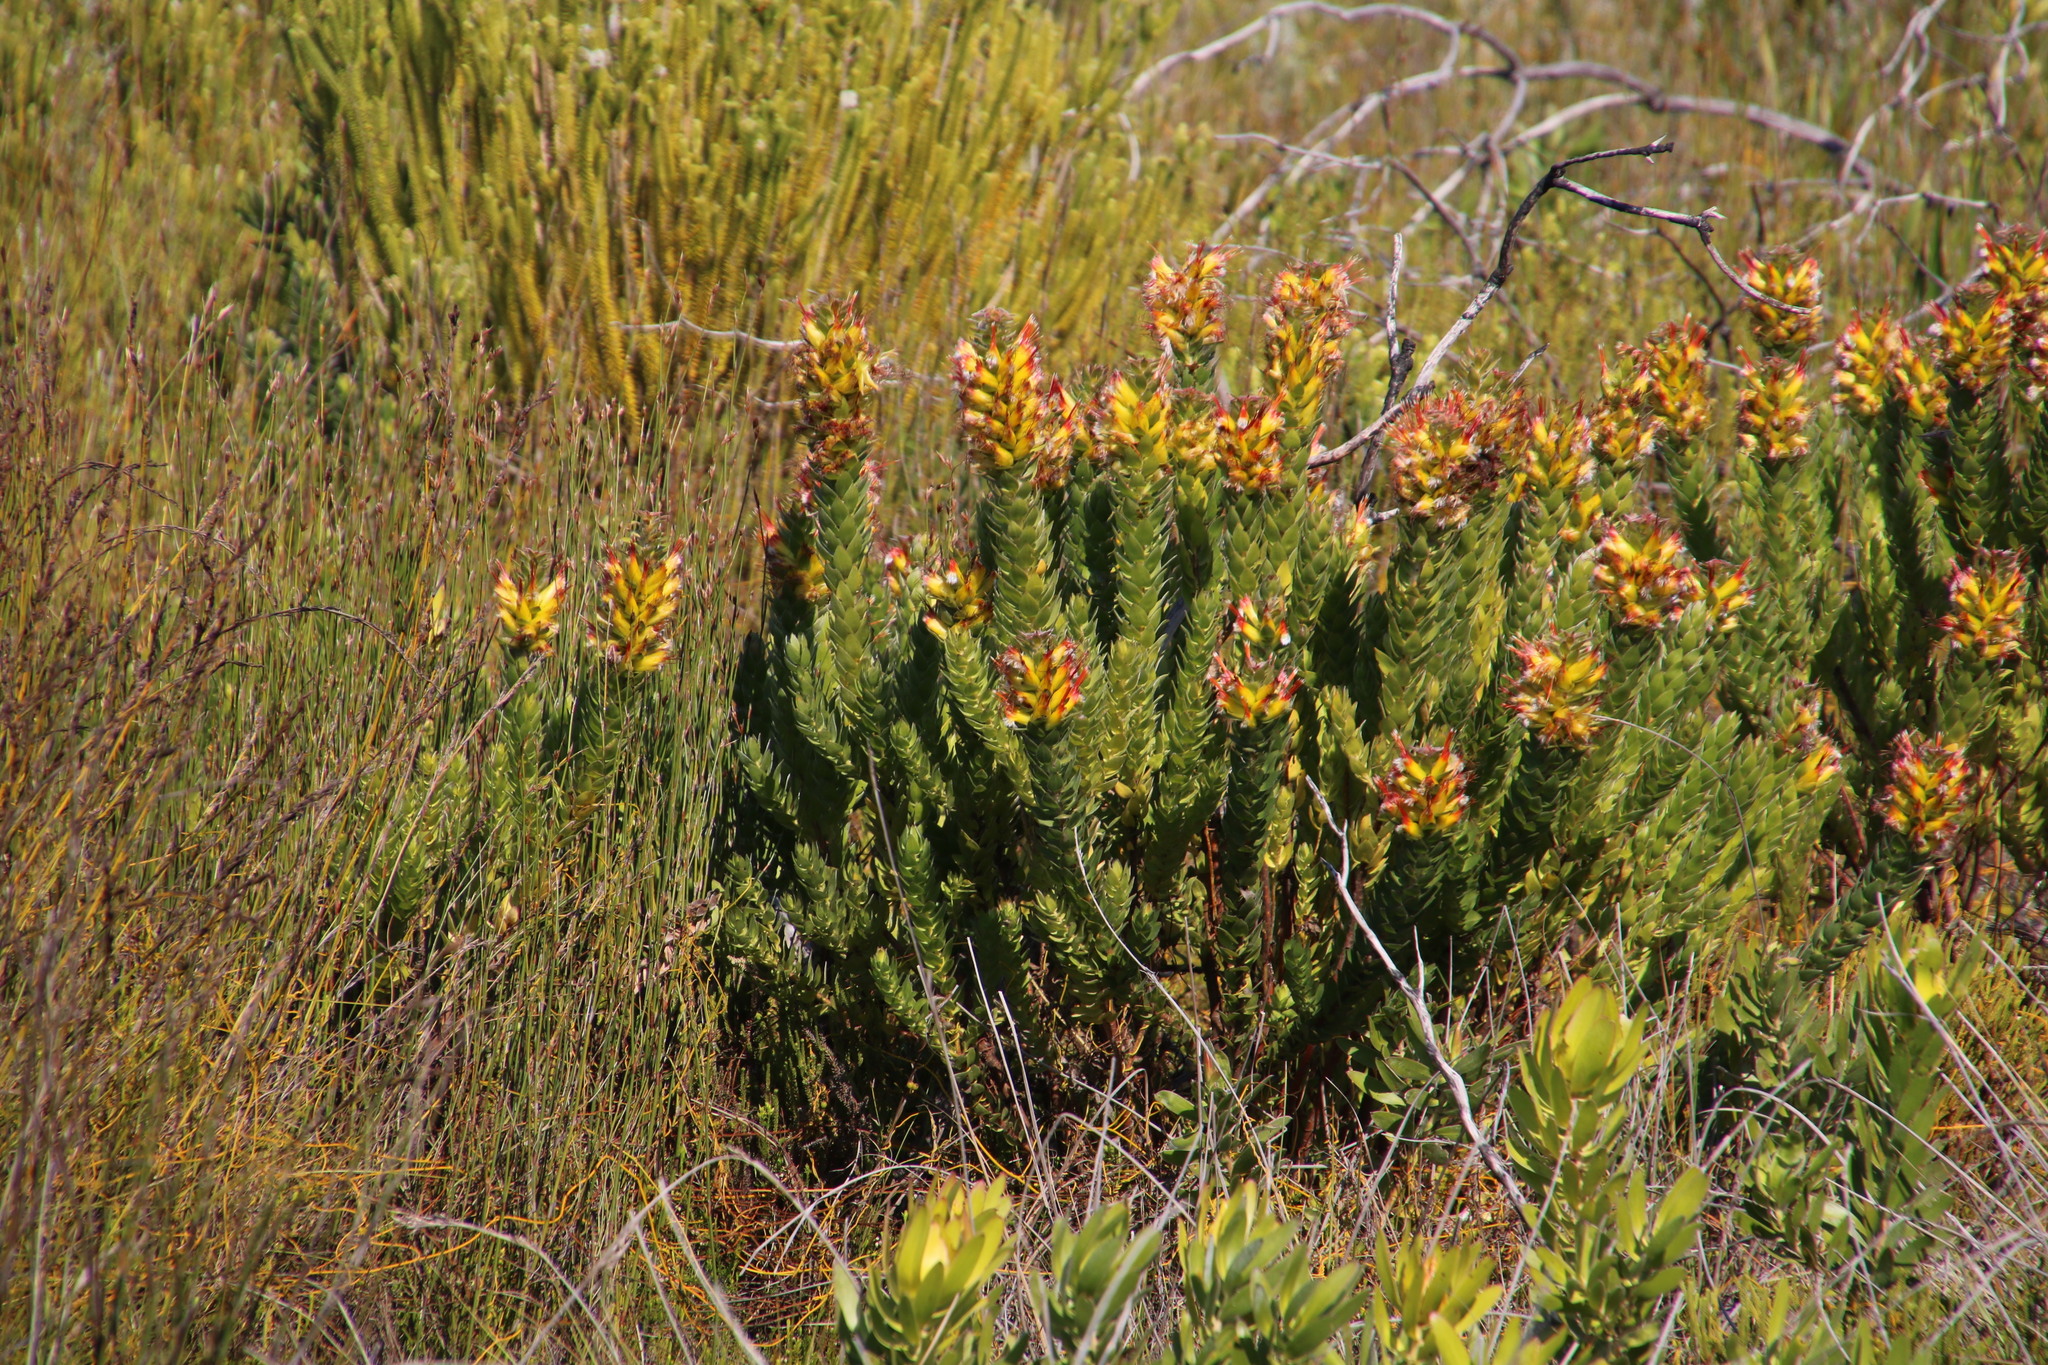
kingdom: Plantae
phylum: Tracheophyta
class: Magnoliopsida
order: Proteales
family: Proteaceae
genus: Mimetes
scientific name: Mimetes hirtus
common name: Marsh pagoda
